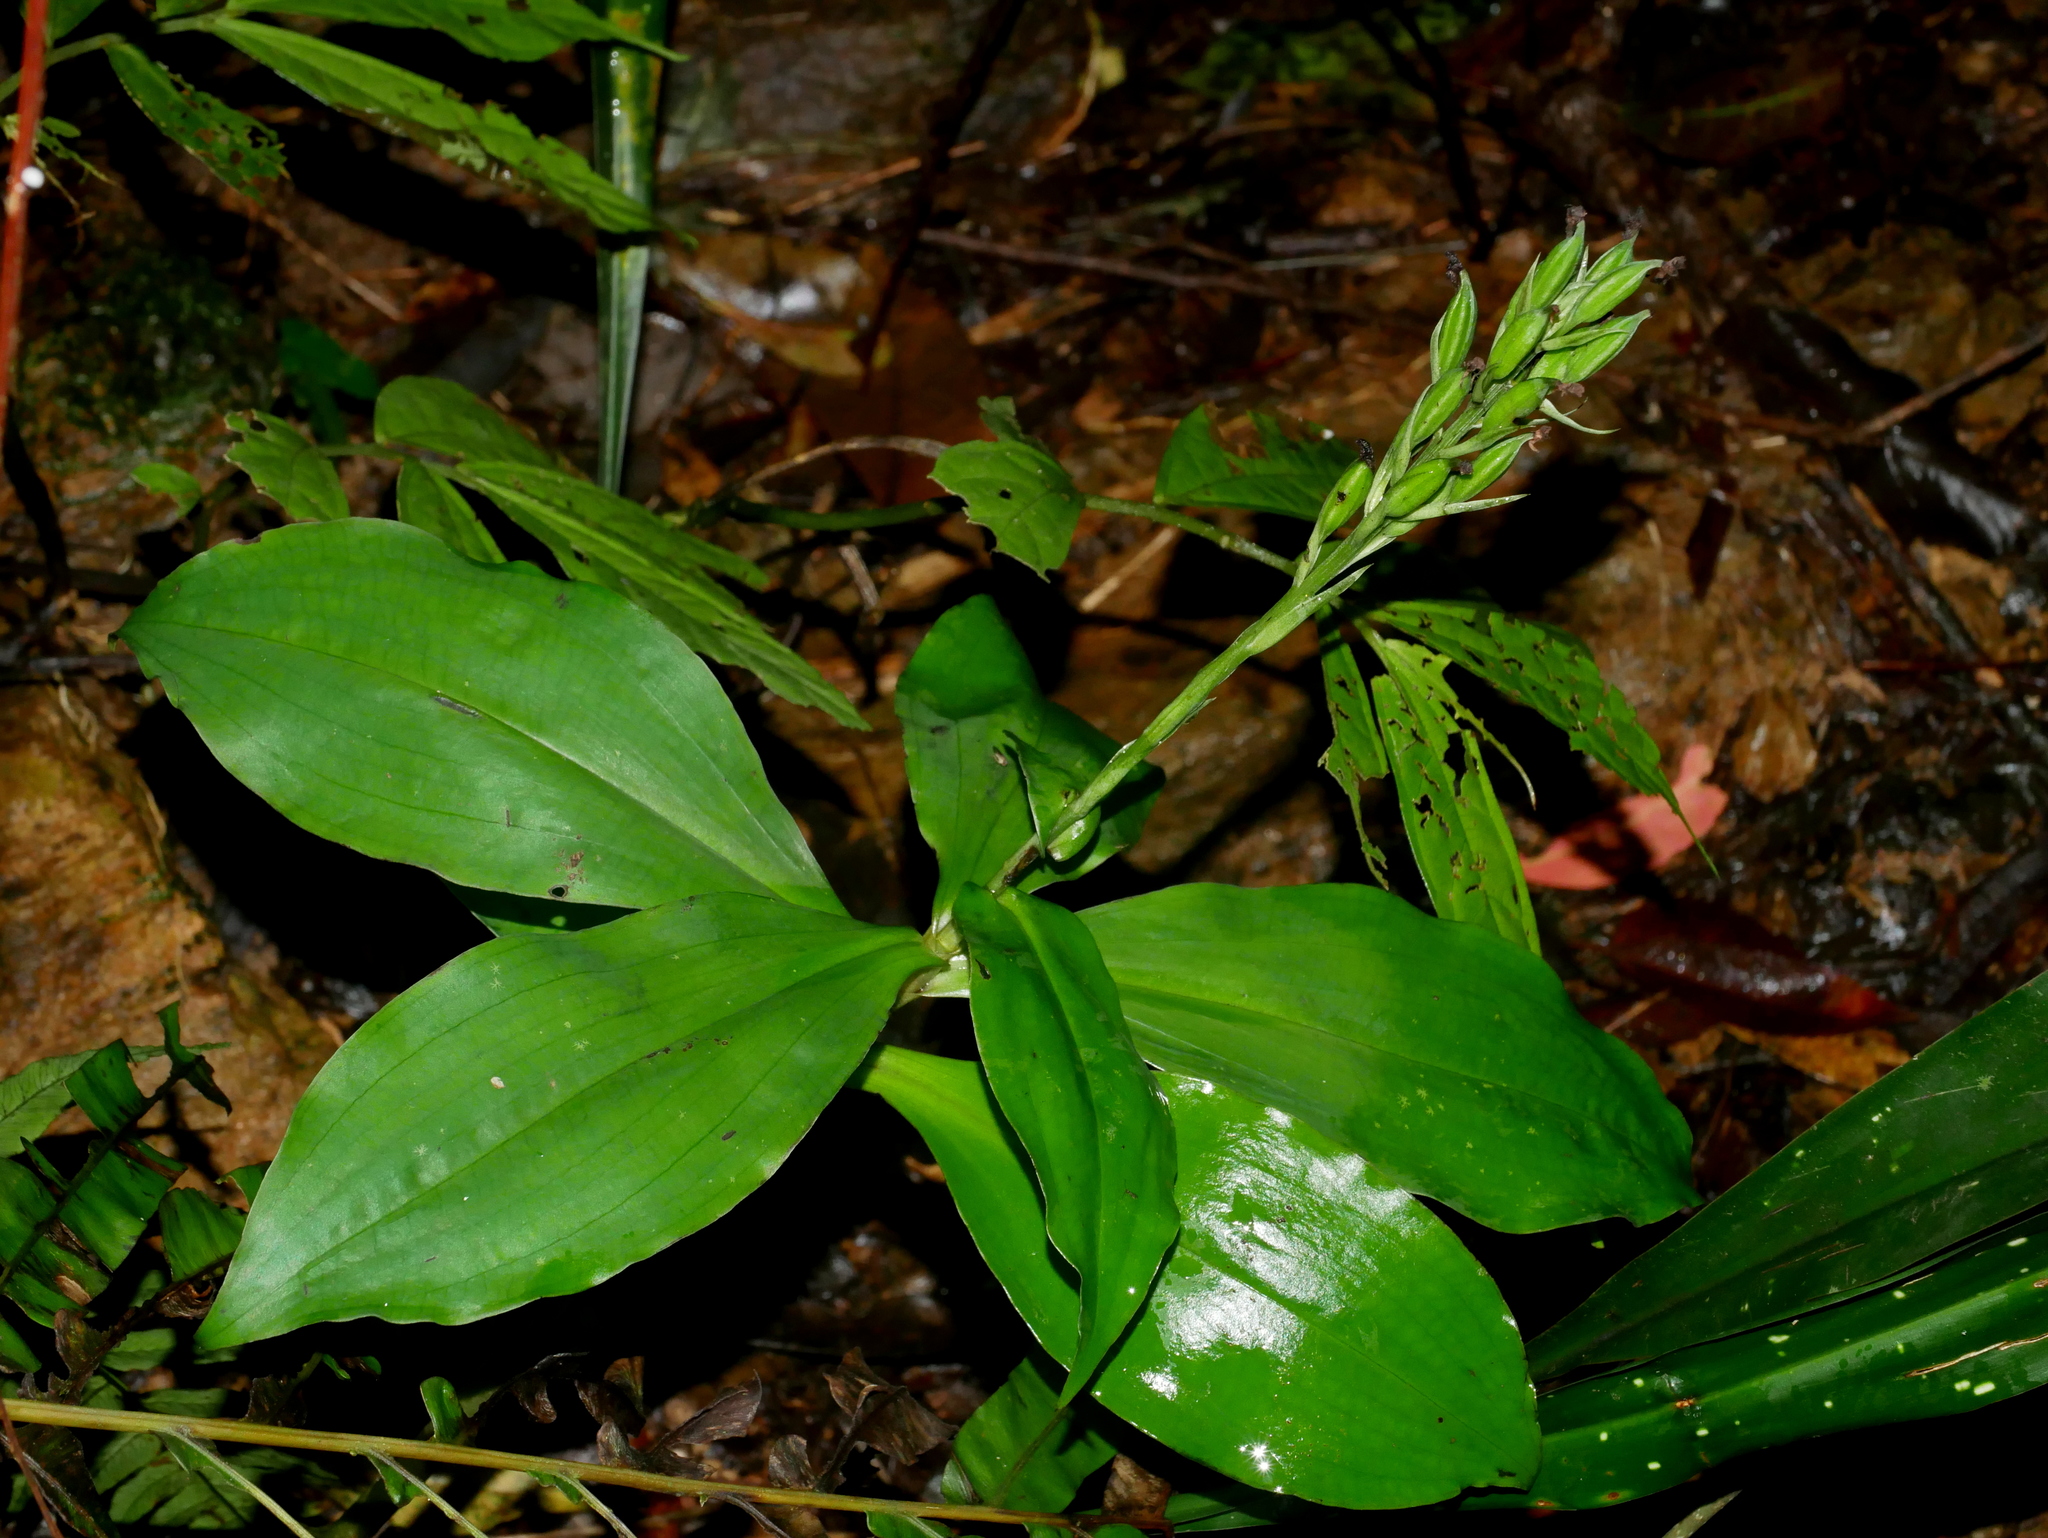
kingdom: Plantae
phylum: Tracheophyta
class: Liliopsida
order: Asparagales
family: Orchidaceae
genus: Habenaria
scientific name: Habenaria pantlingiana
